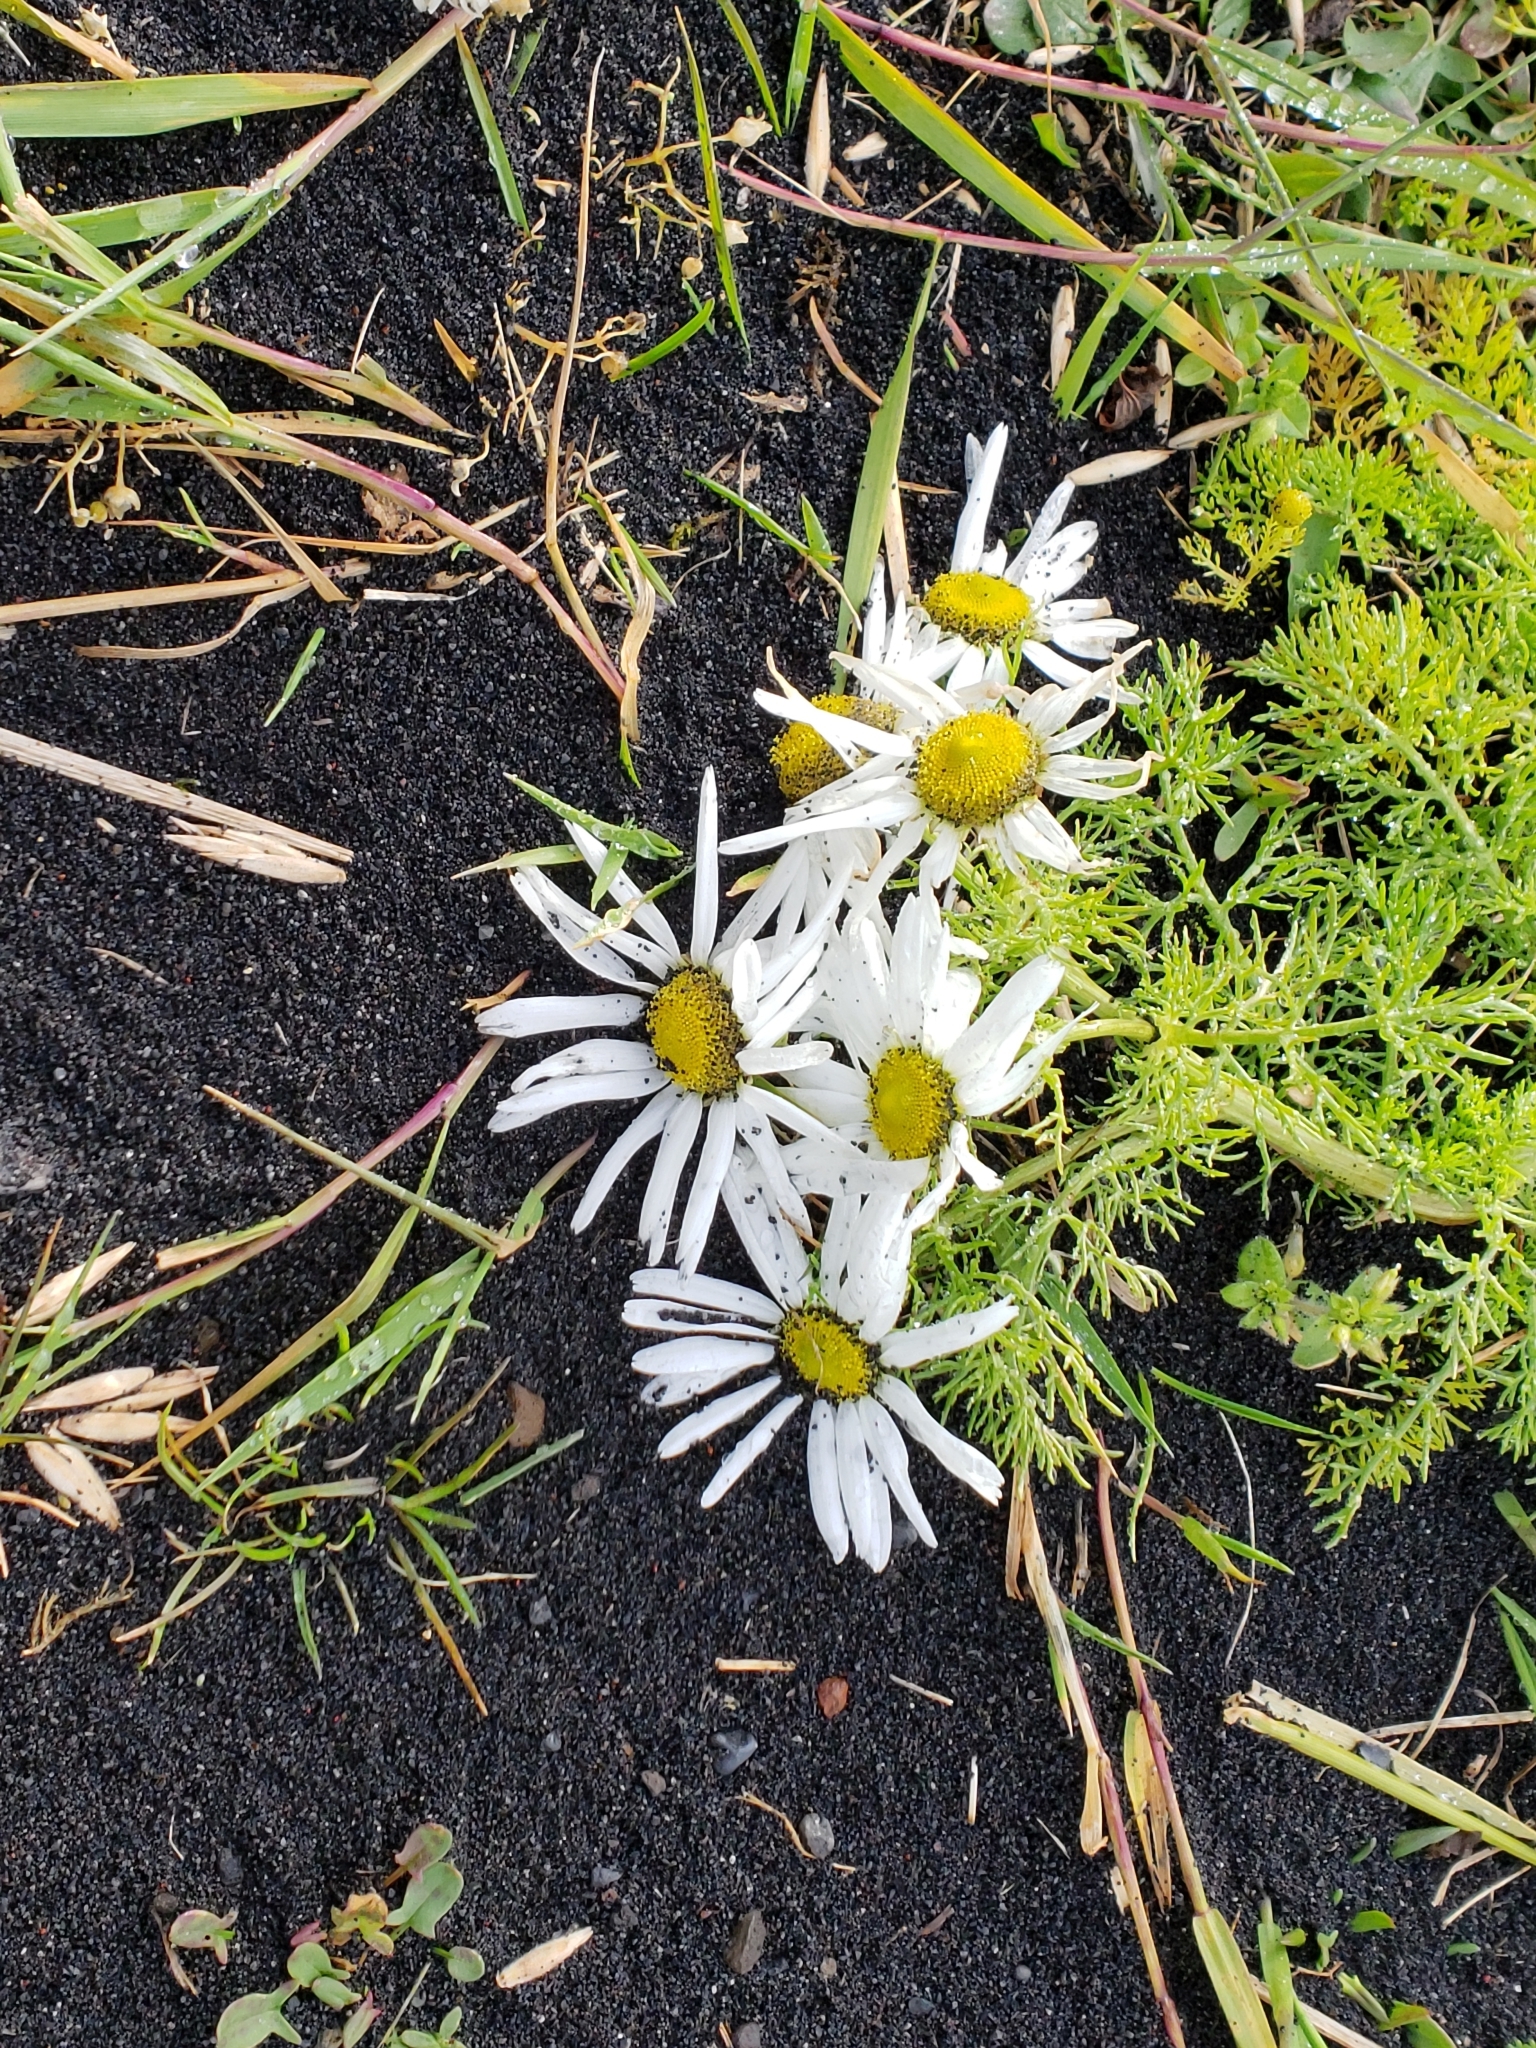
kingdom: Plantae
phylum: Tracheophyta
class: Magnoliopsida
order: Asterales
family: Asteraceae
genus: Tripleurospermum
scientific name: Tripleurospermum maritimum
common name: Sea mayweed
